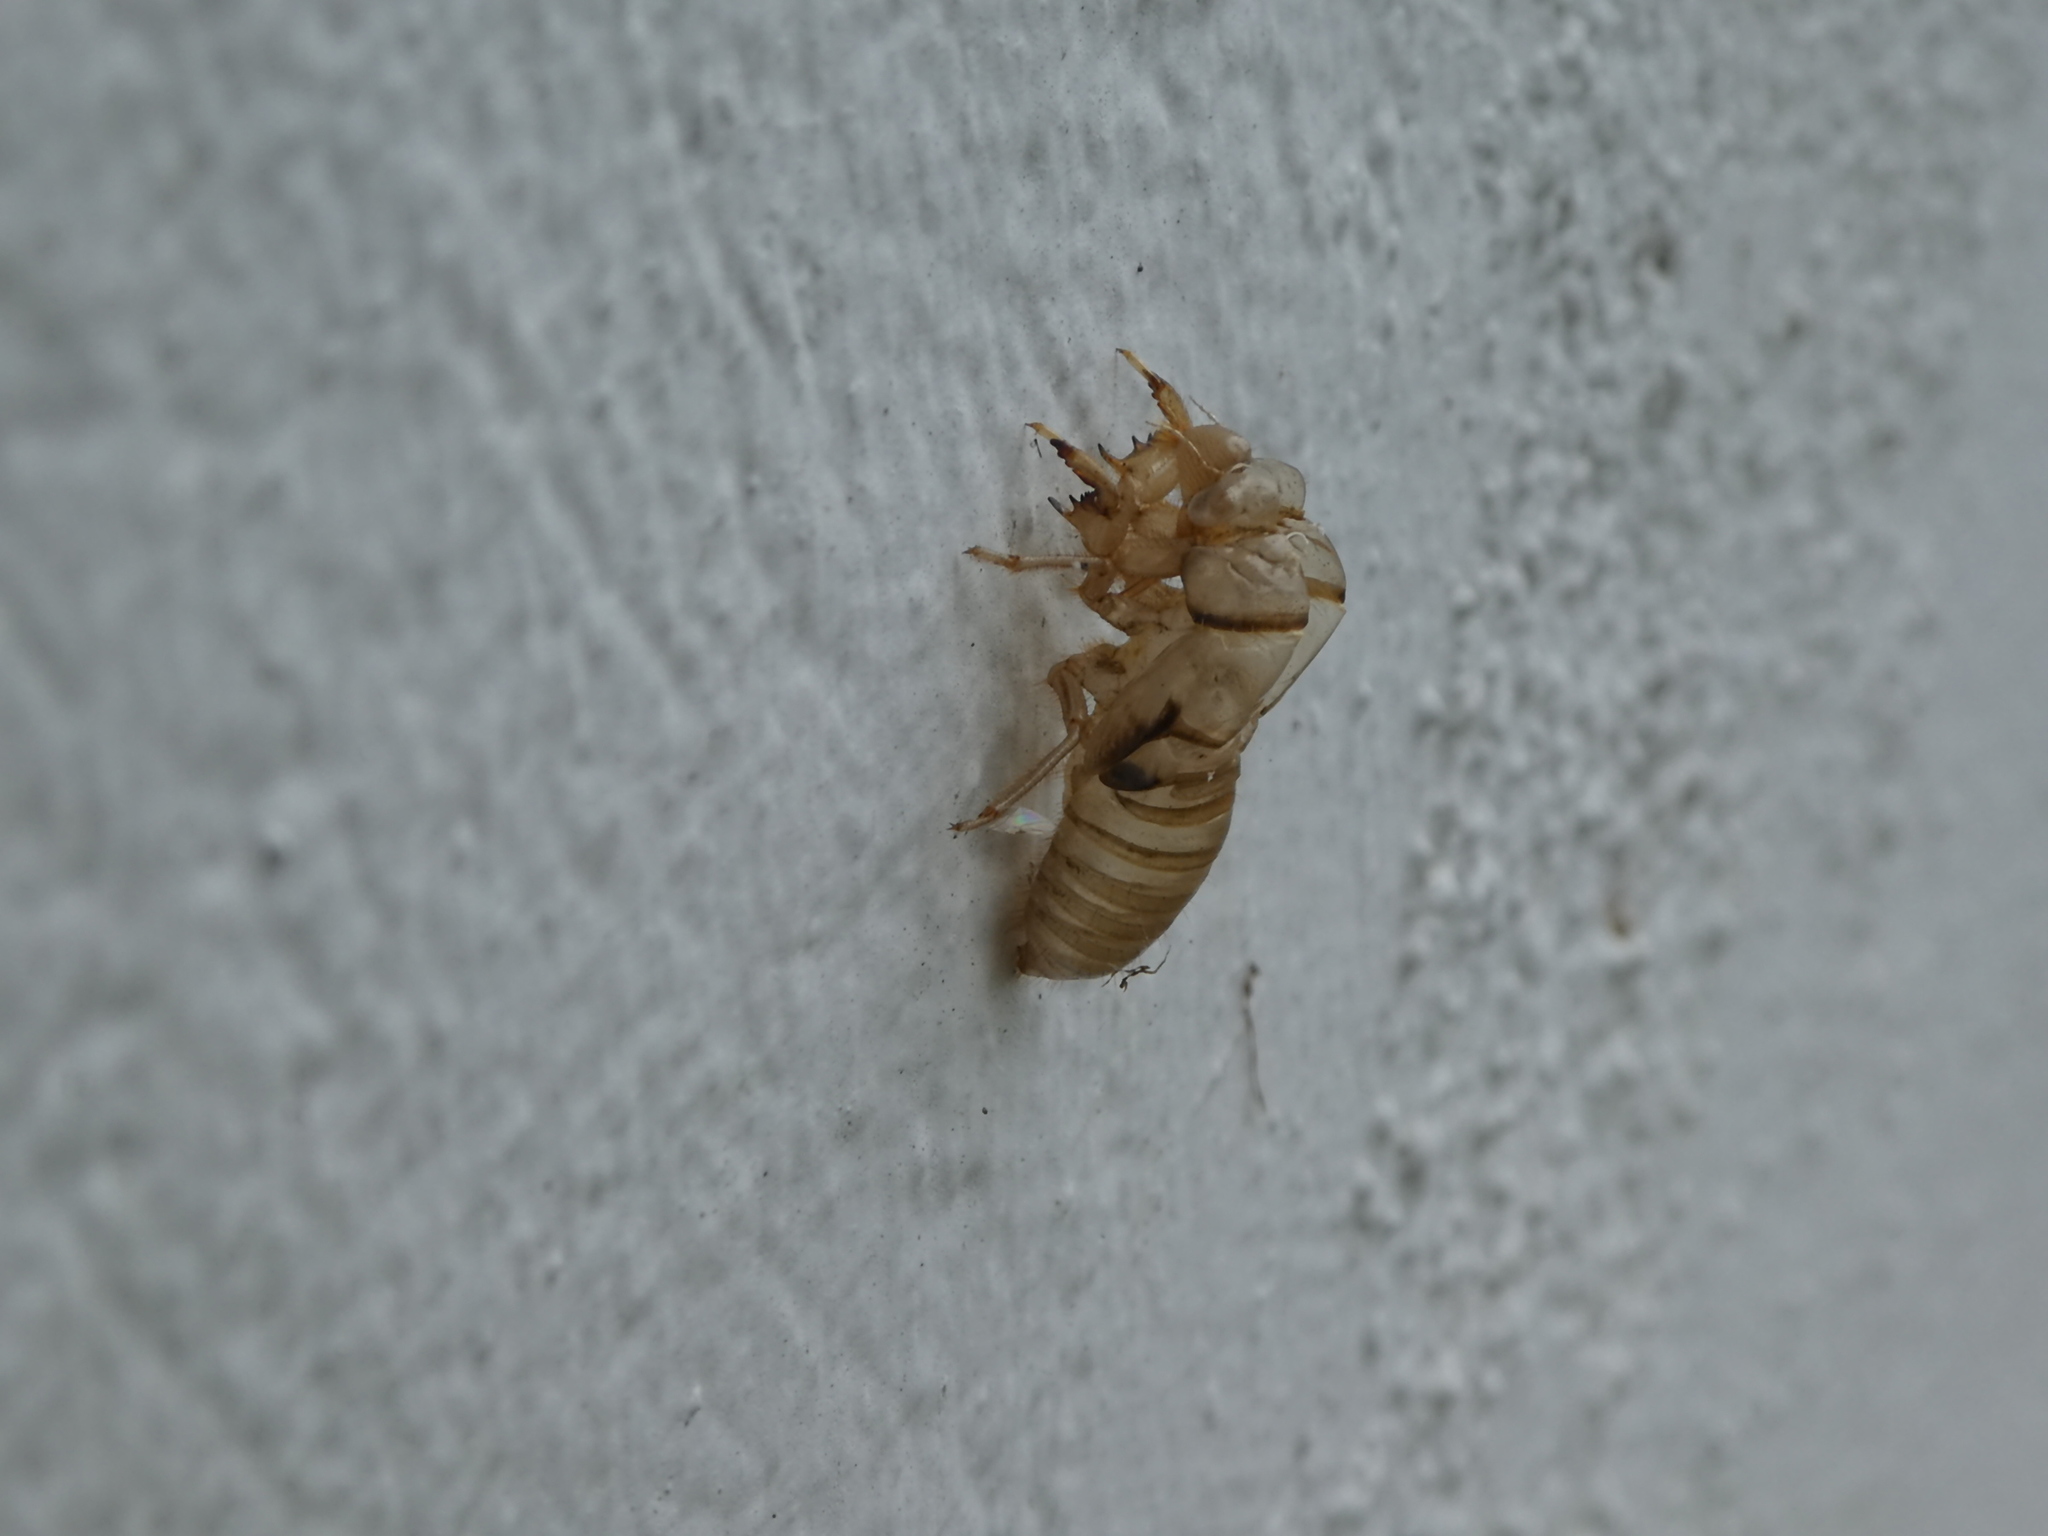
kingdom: Animalia
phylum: Arthropoda
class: Insecta
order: Hemiptera
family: Cicadidae
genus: Tibicinoides
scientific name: Tibicinoides
